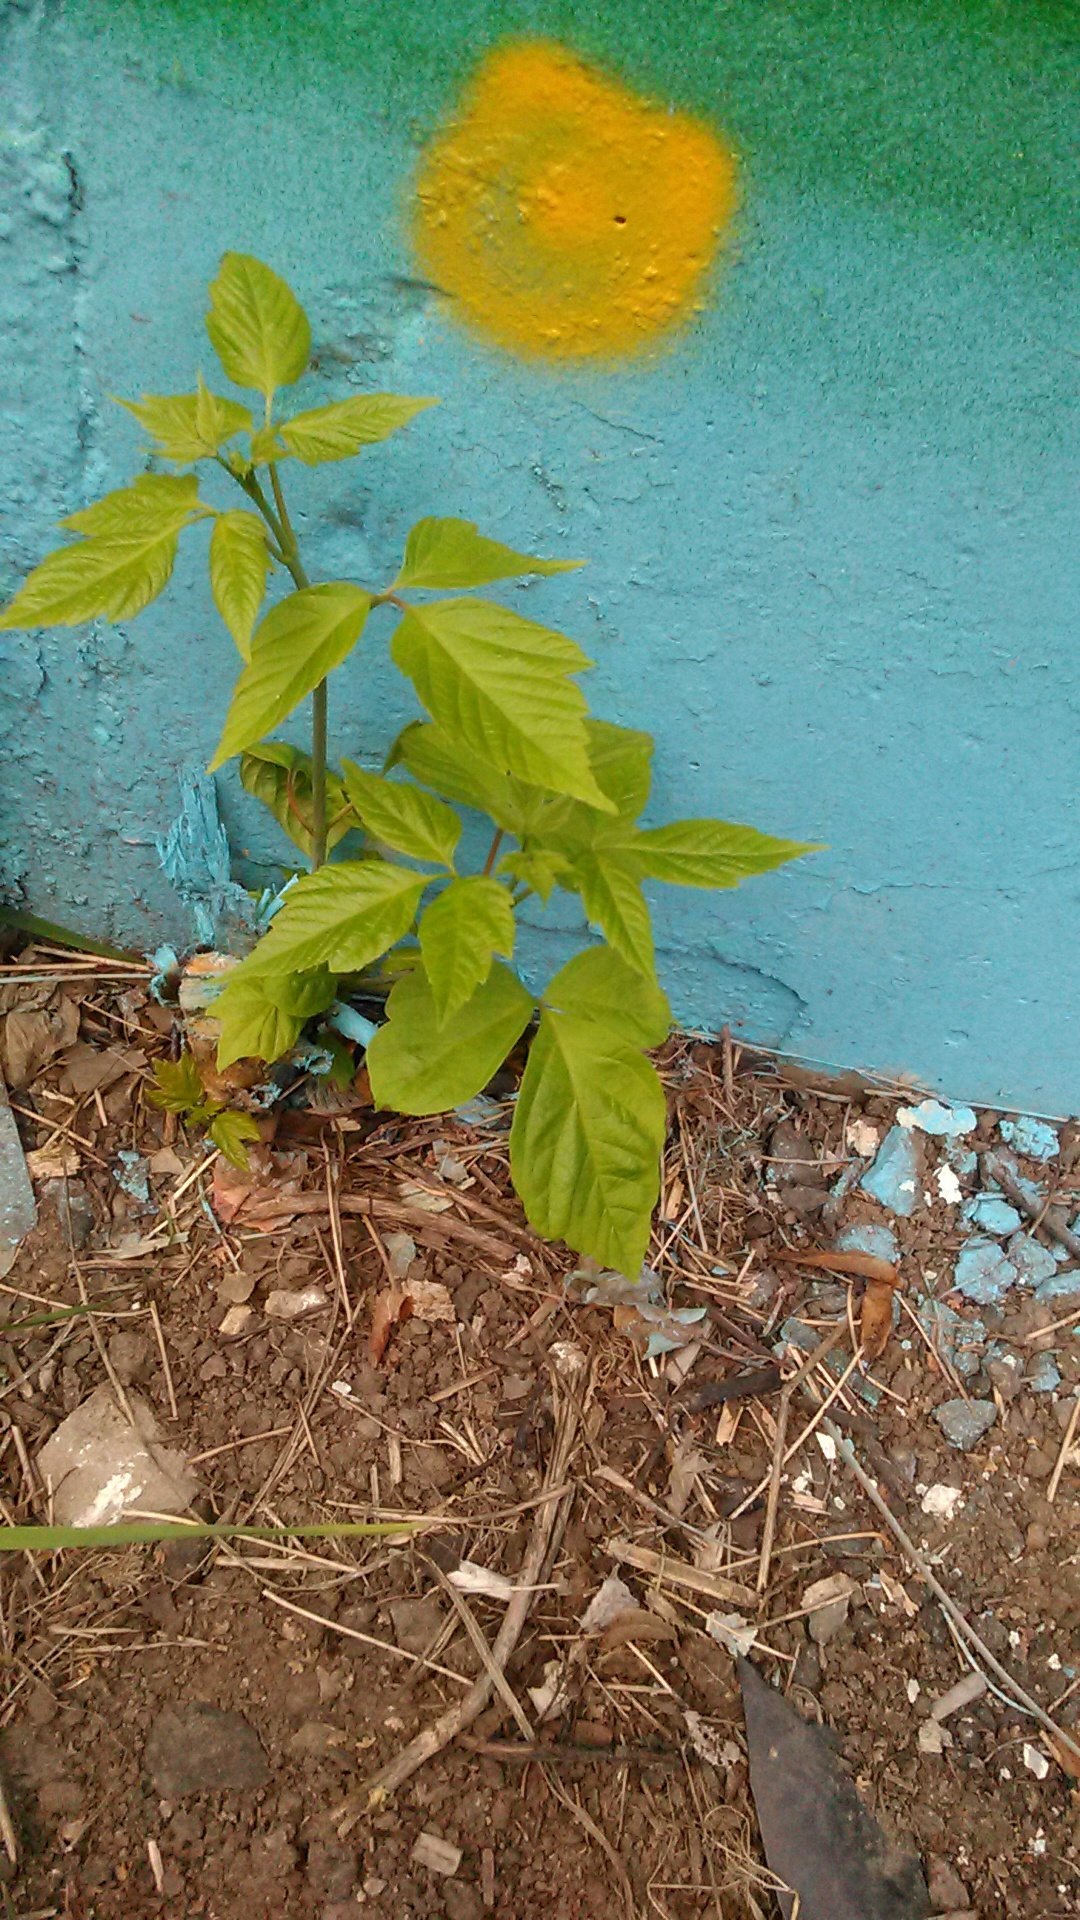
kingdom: Plantae
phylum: Tracheophyta
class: Magnoliopsida
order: Sapindales
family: Sapindaceae
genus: Acer
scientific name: Acer negundo
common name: Ashleaf maple
